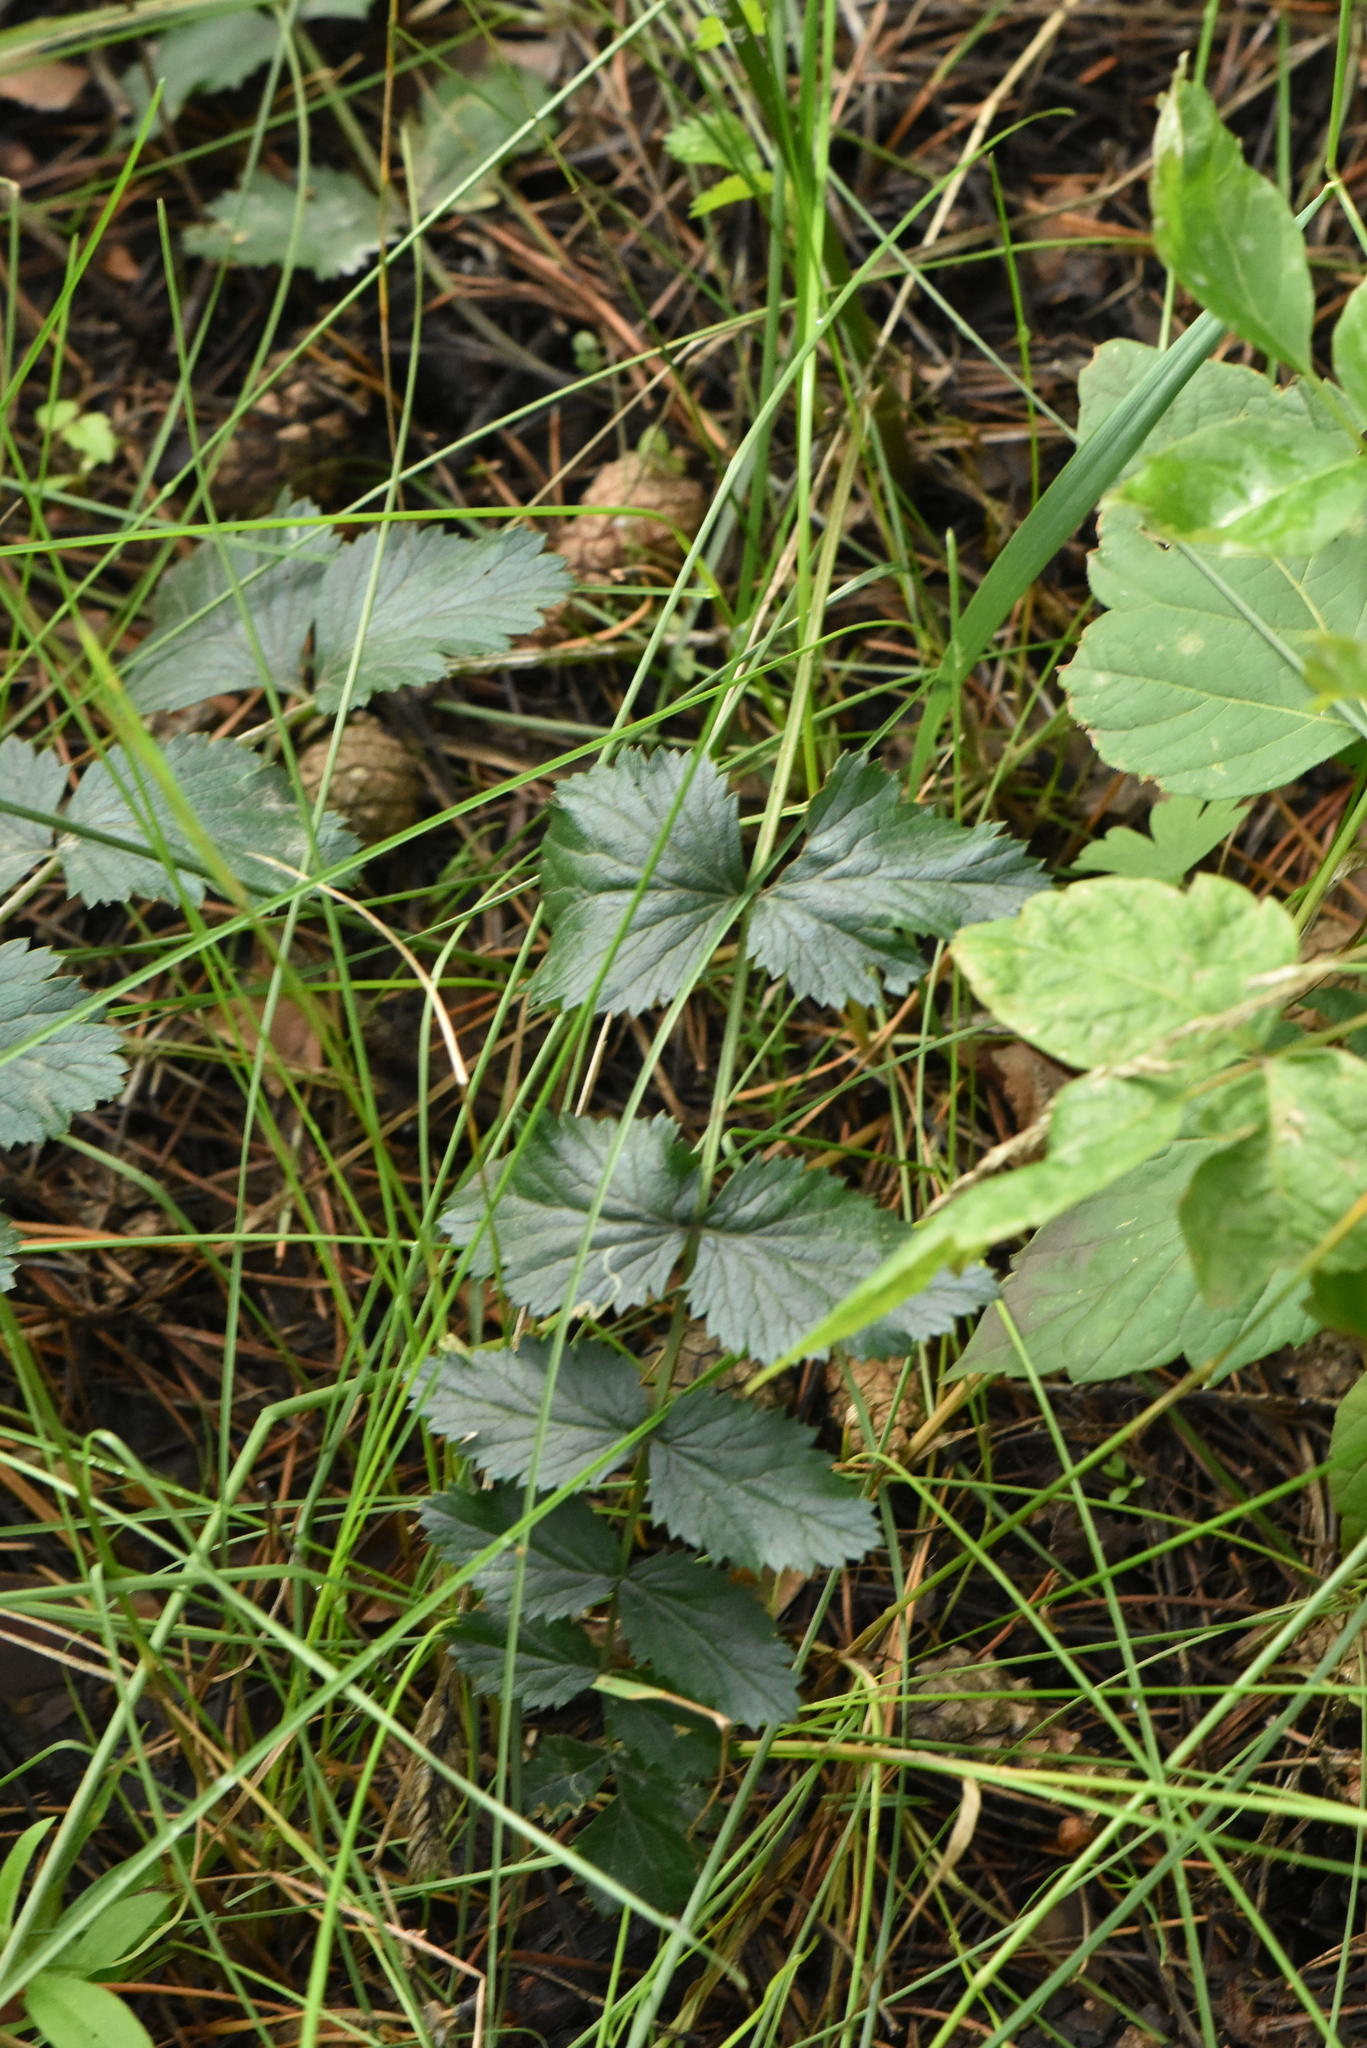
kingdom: Plantae
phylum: Tracheophyta
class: Magnoliopsida
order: Apiales
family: Apiaceae
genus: Pimpinella
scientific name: Pimpinella saxifraga
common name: Burnet-saxifrage
